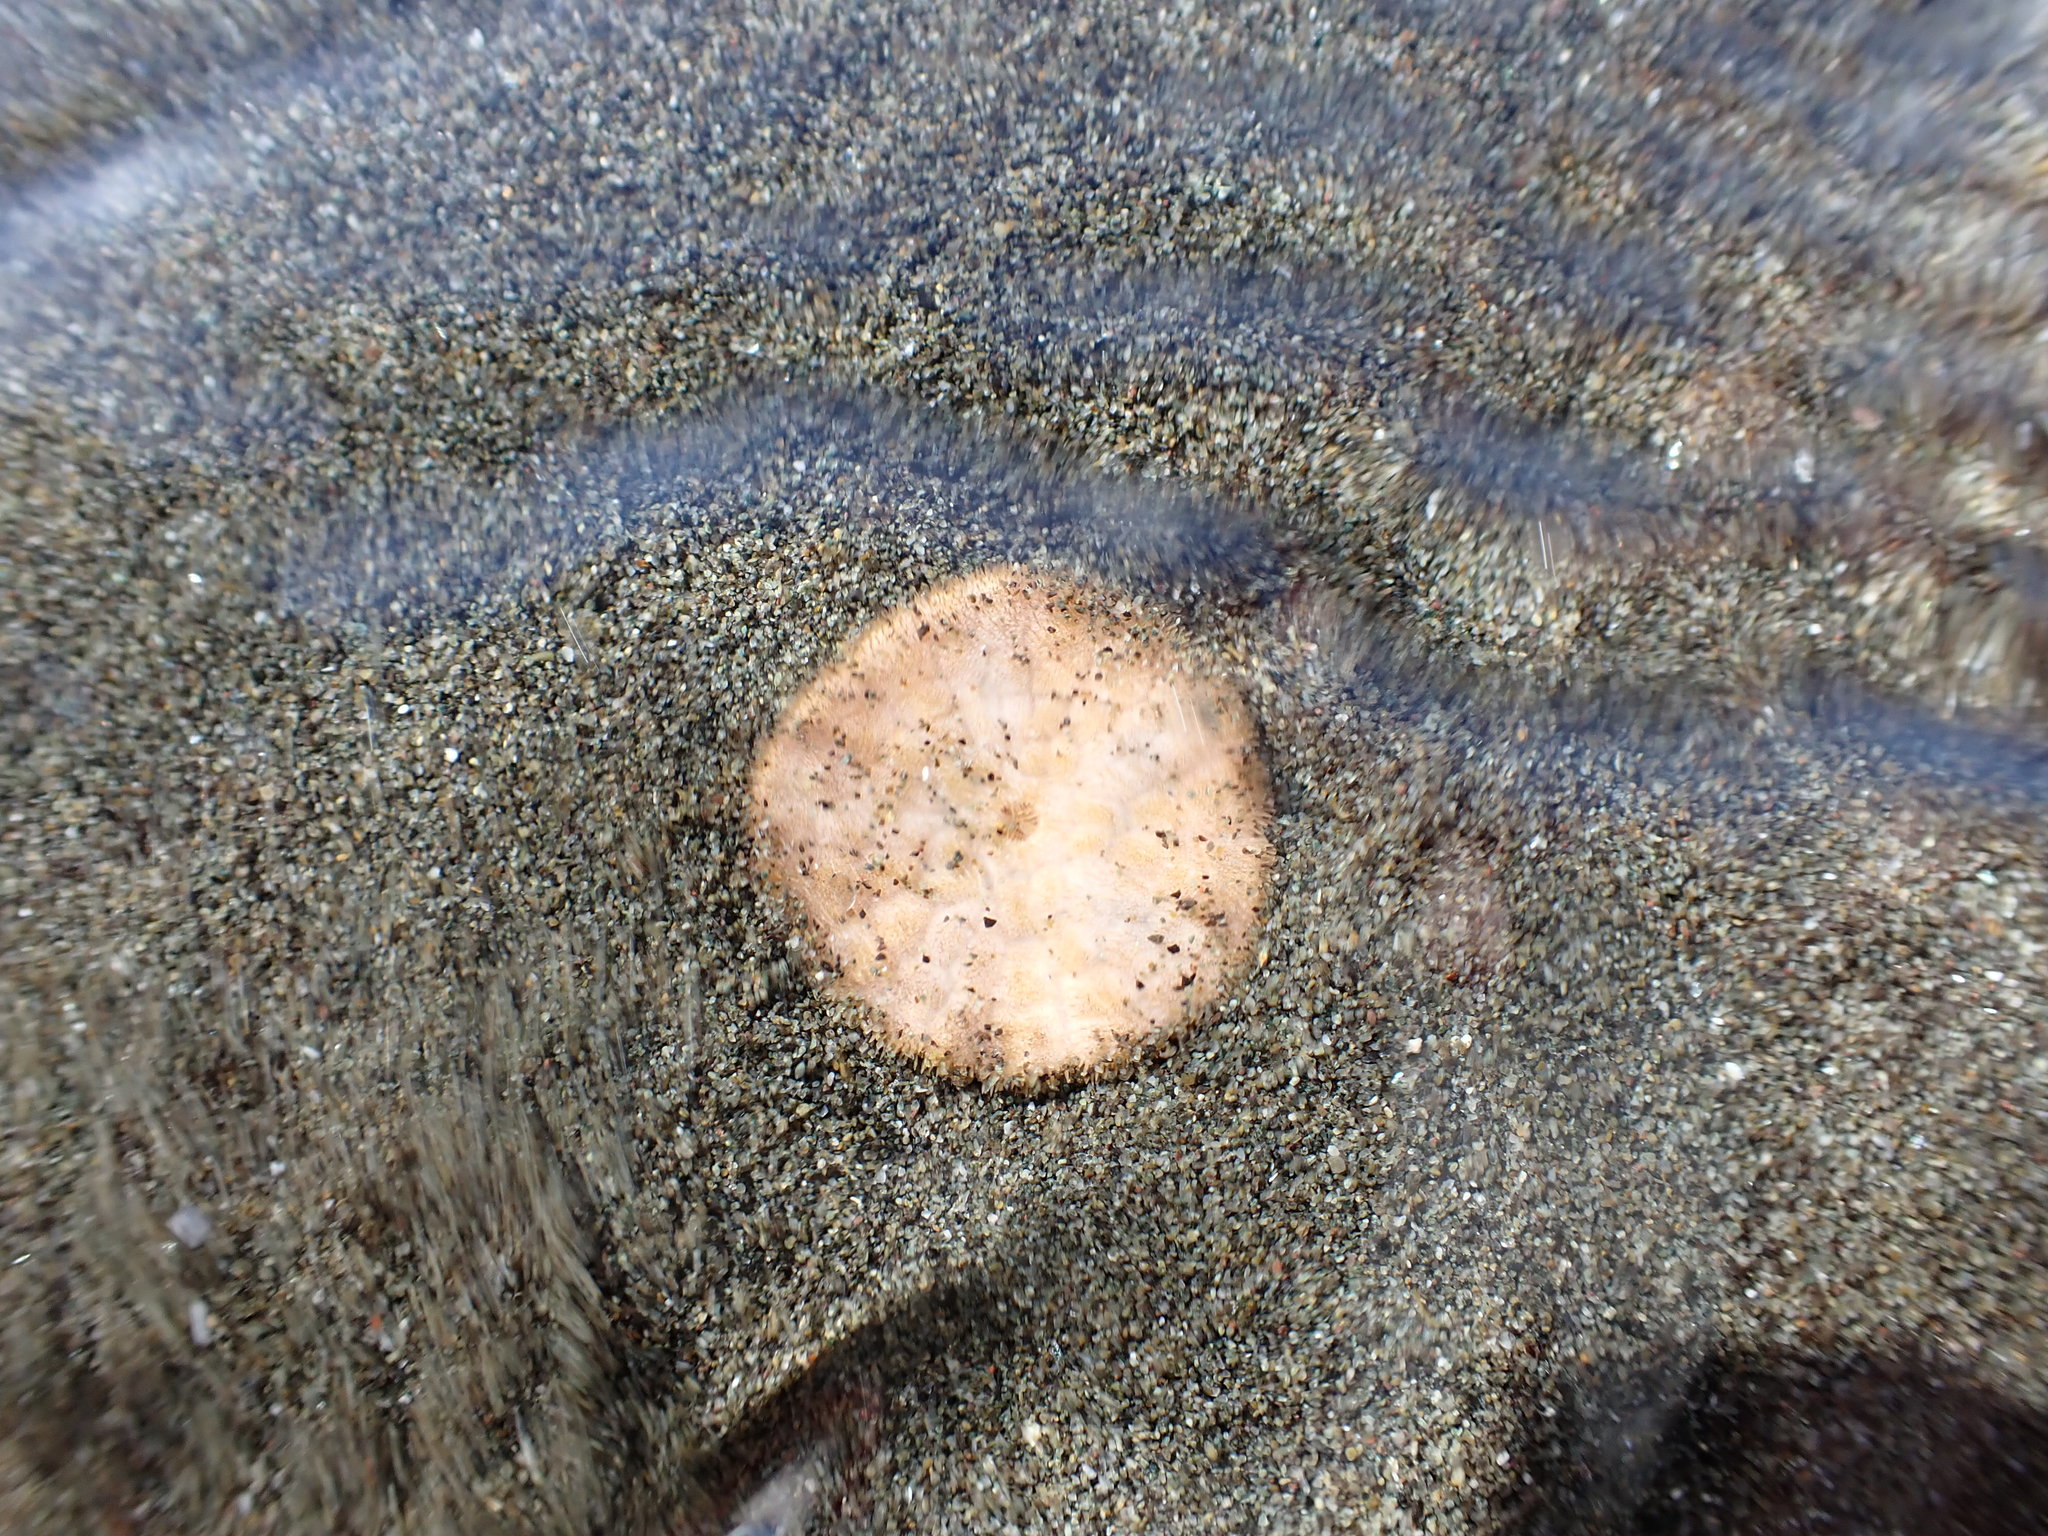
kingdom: Animalia
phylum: Echinodermata
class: Echinoidea
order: Echinolampadacea
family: Echinarachniidae
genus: Echinarachnius
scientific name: Echinarachnius parma
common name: Common sand dollar
